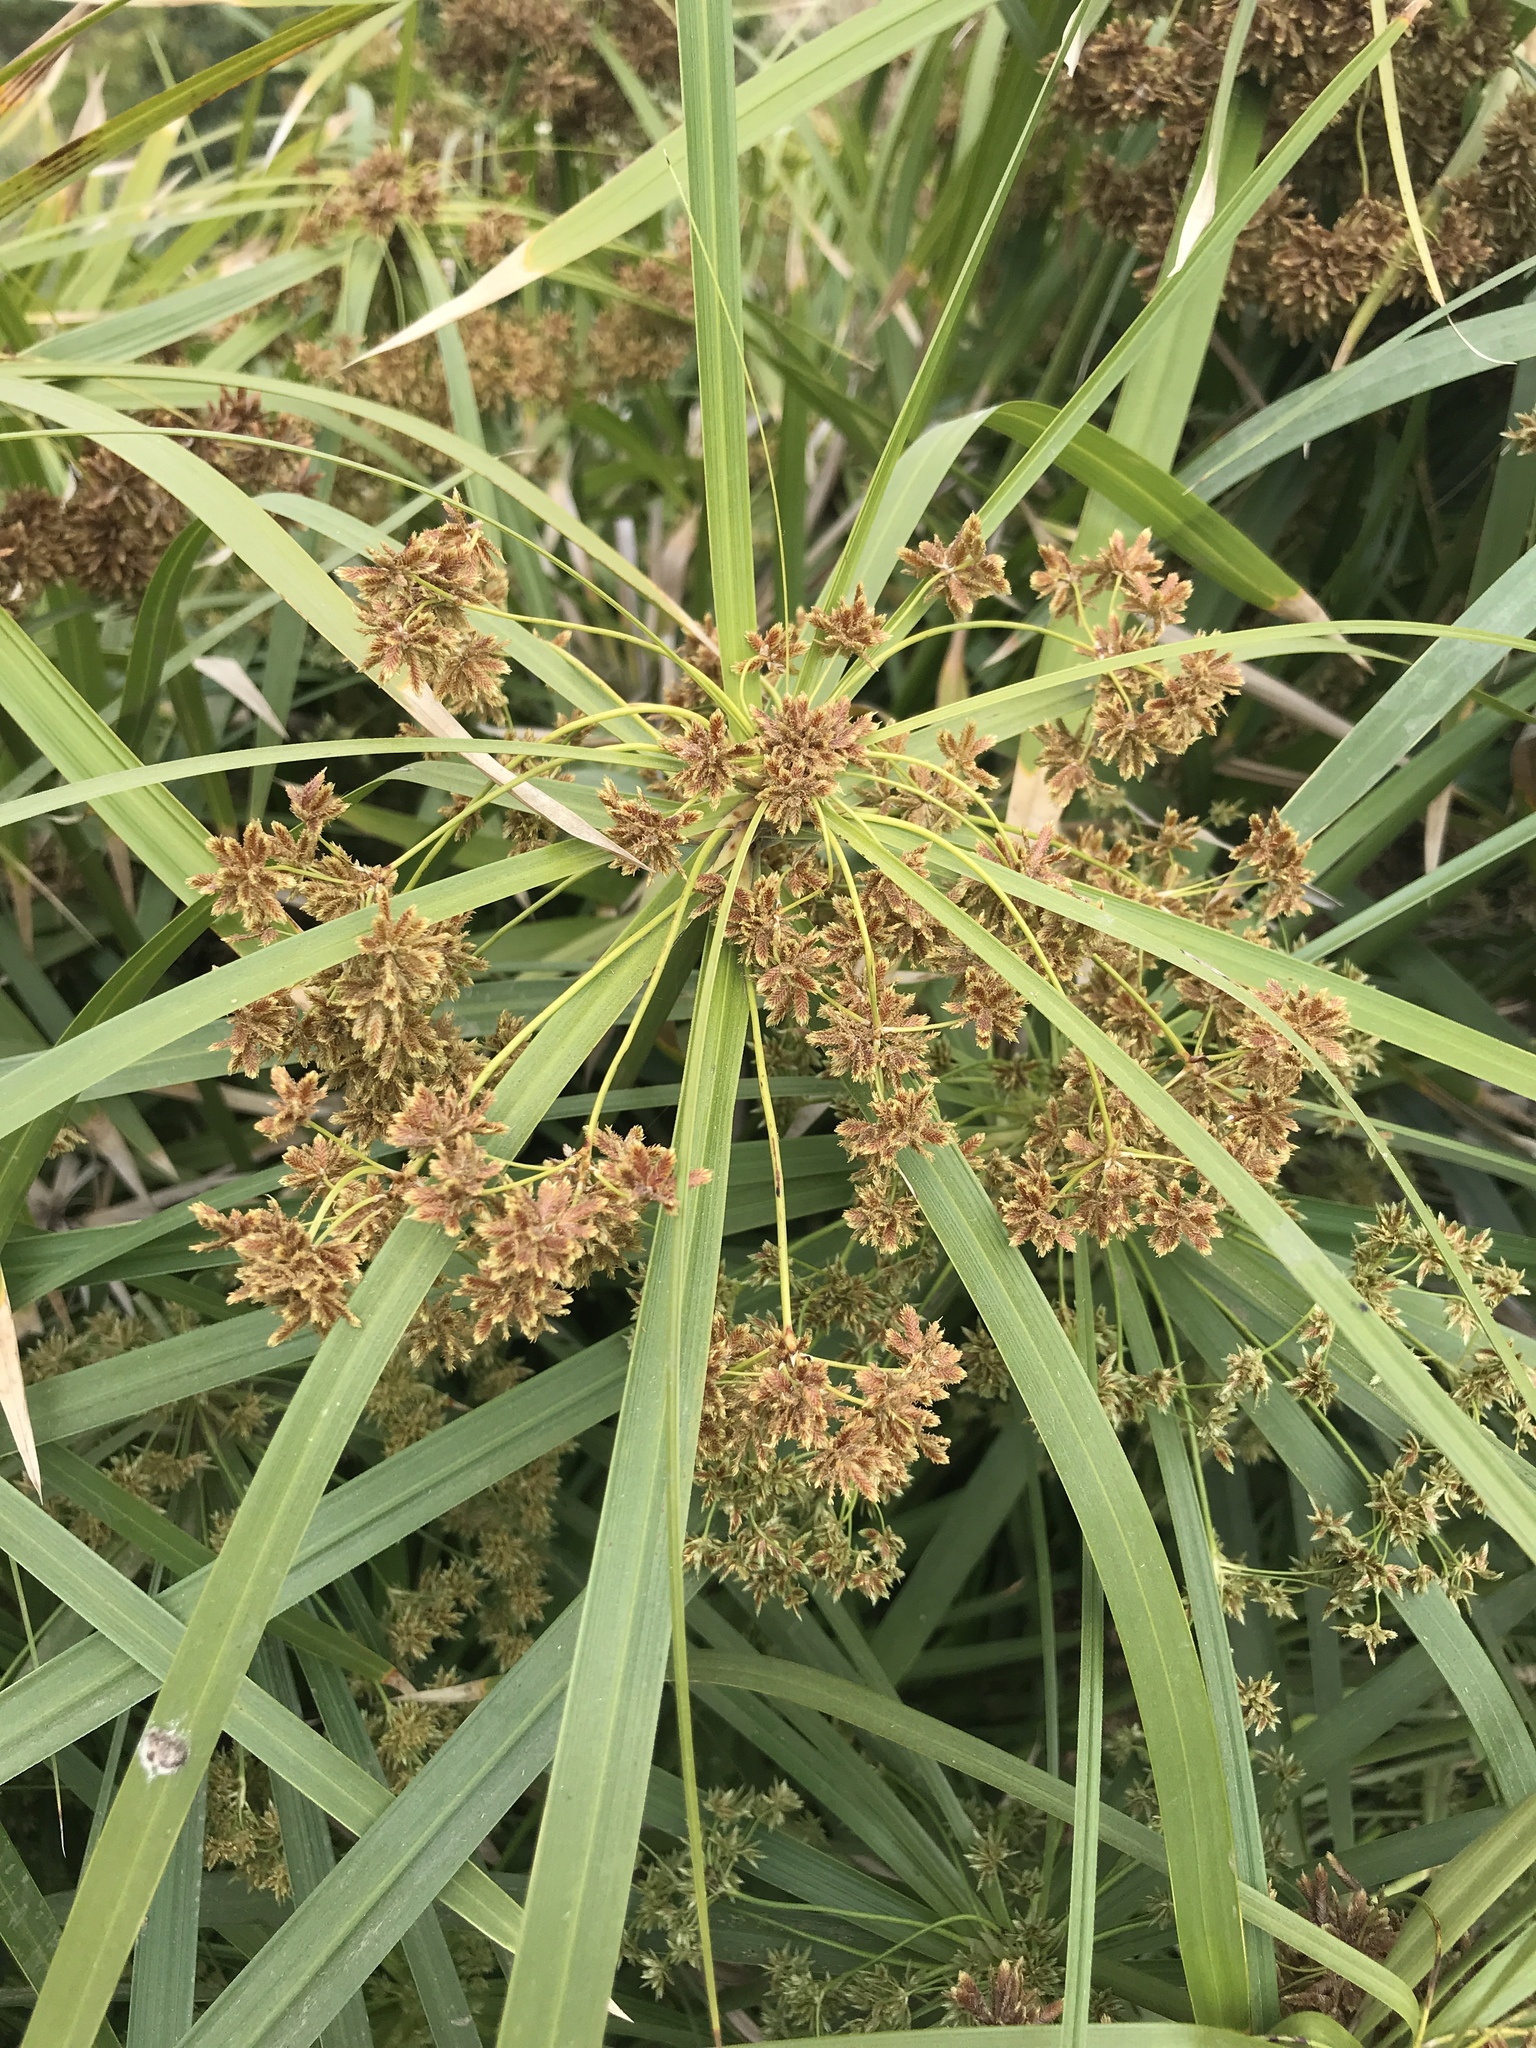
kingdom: Plantae
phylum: Tracheophyta
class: Liliopsida
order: Poales
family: Cyperaceae
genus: Cyperus
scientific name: Cyperus alternifolius
